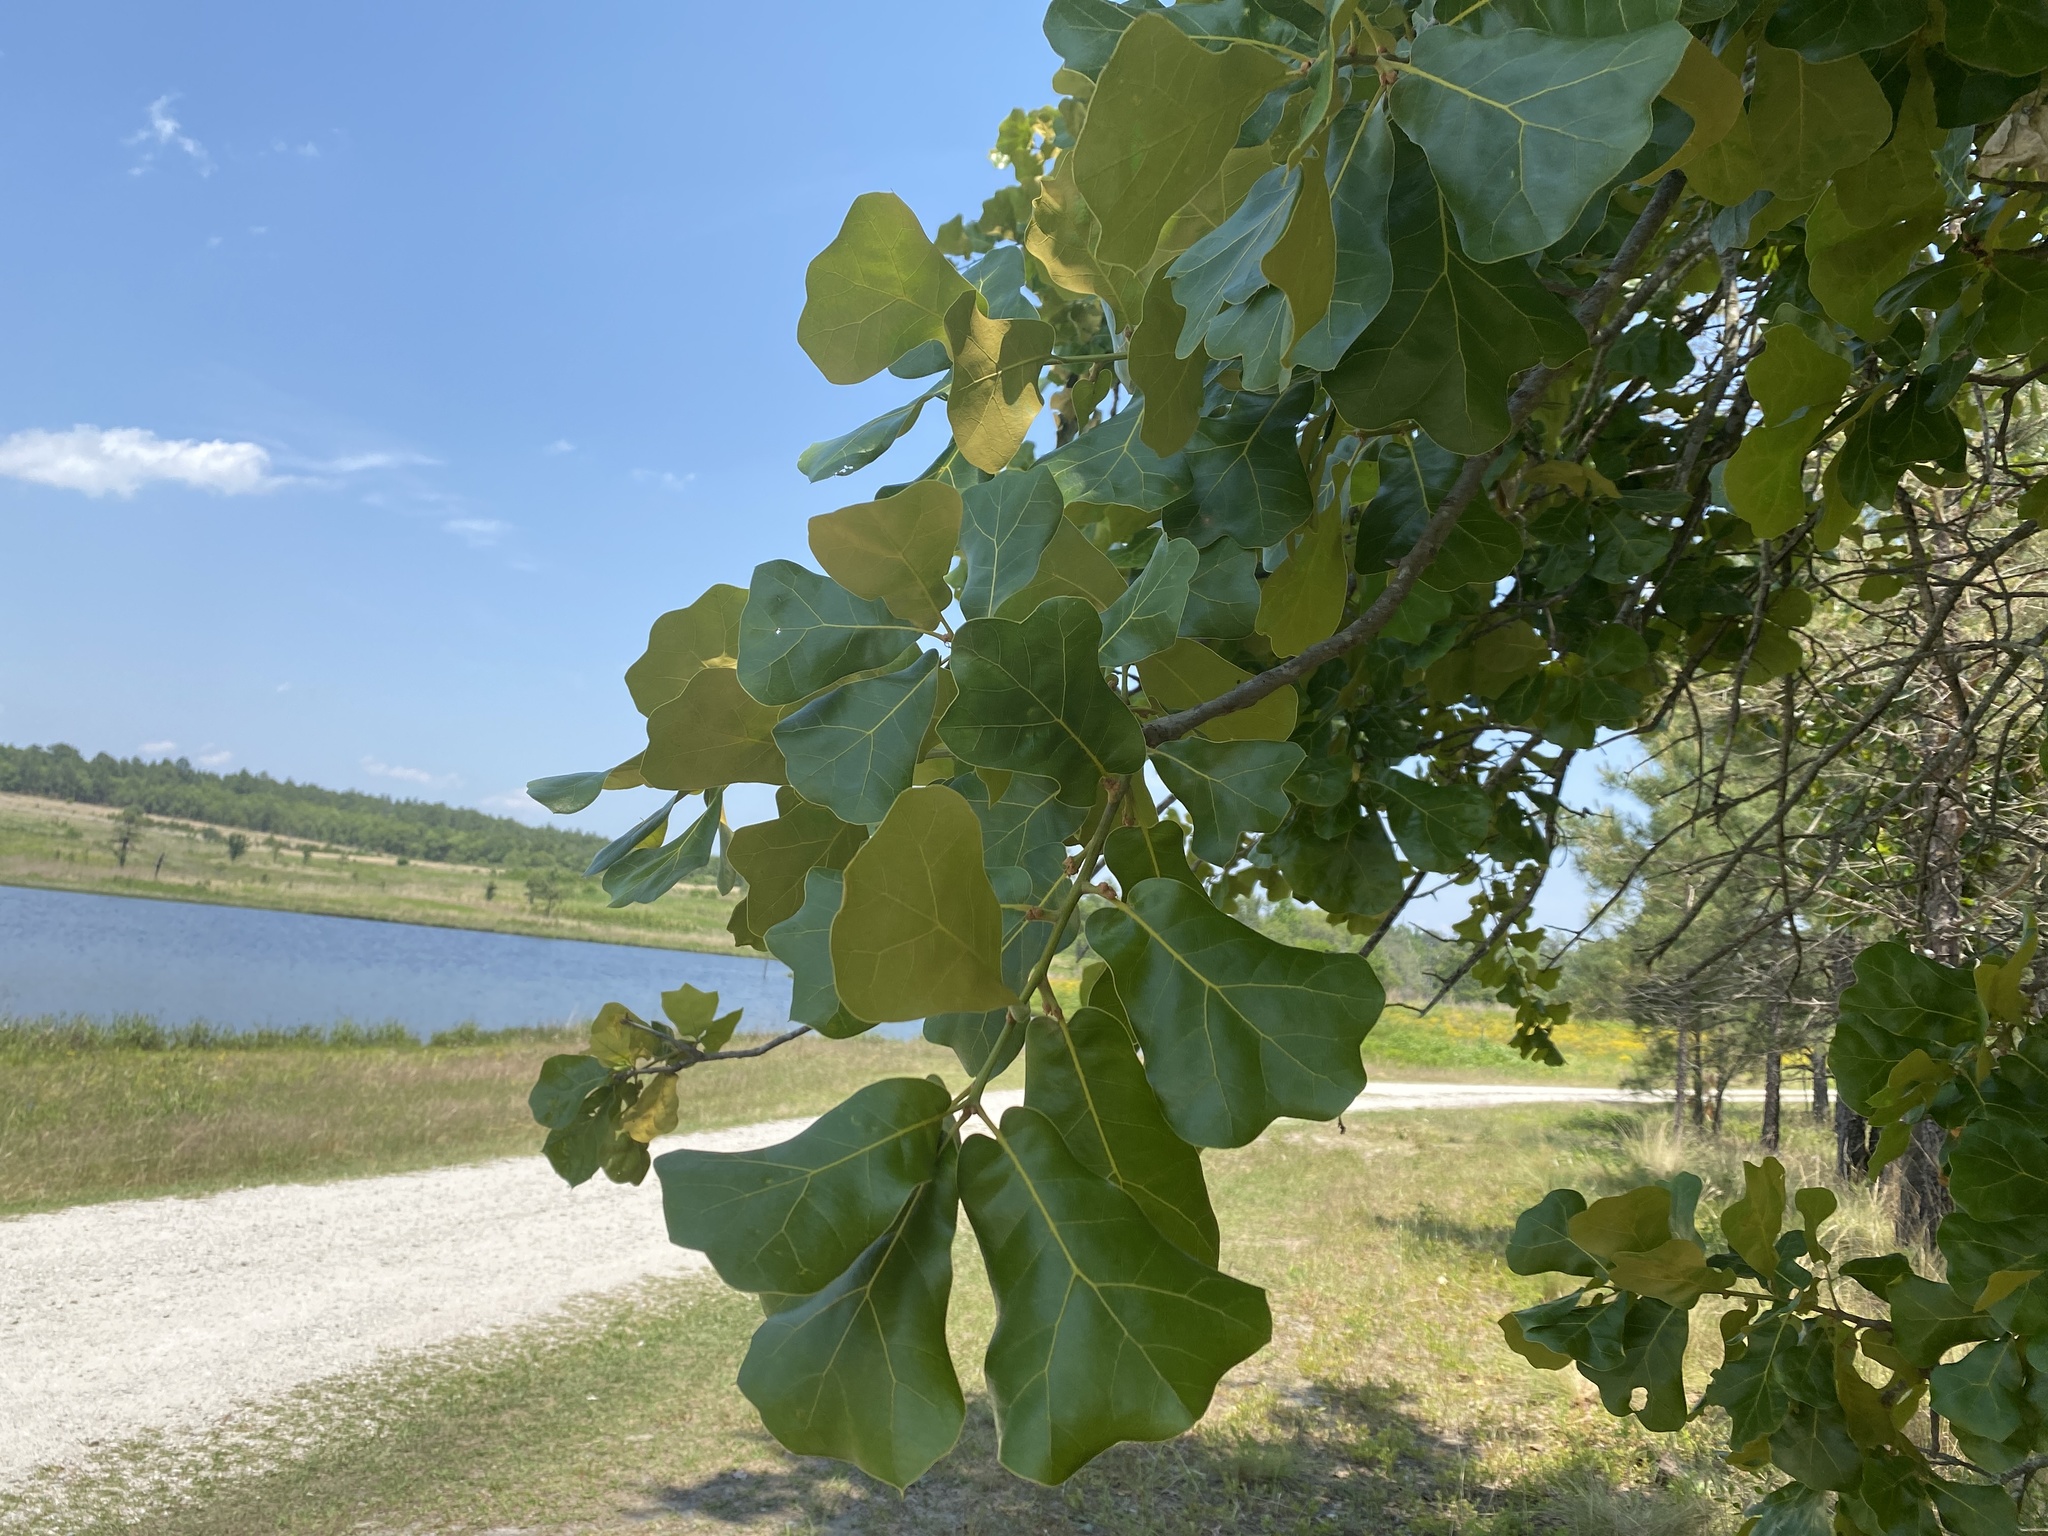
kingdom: Plantae
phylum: Tracheophyta
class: Magnoliopsida
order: Fagales
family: Fagaceae
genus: Quercus
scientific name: Quercus marilandica
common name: Blackjack oak
